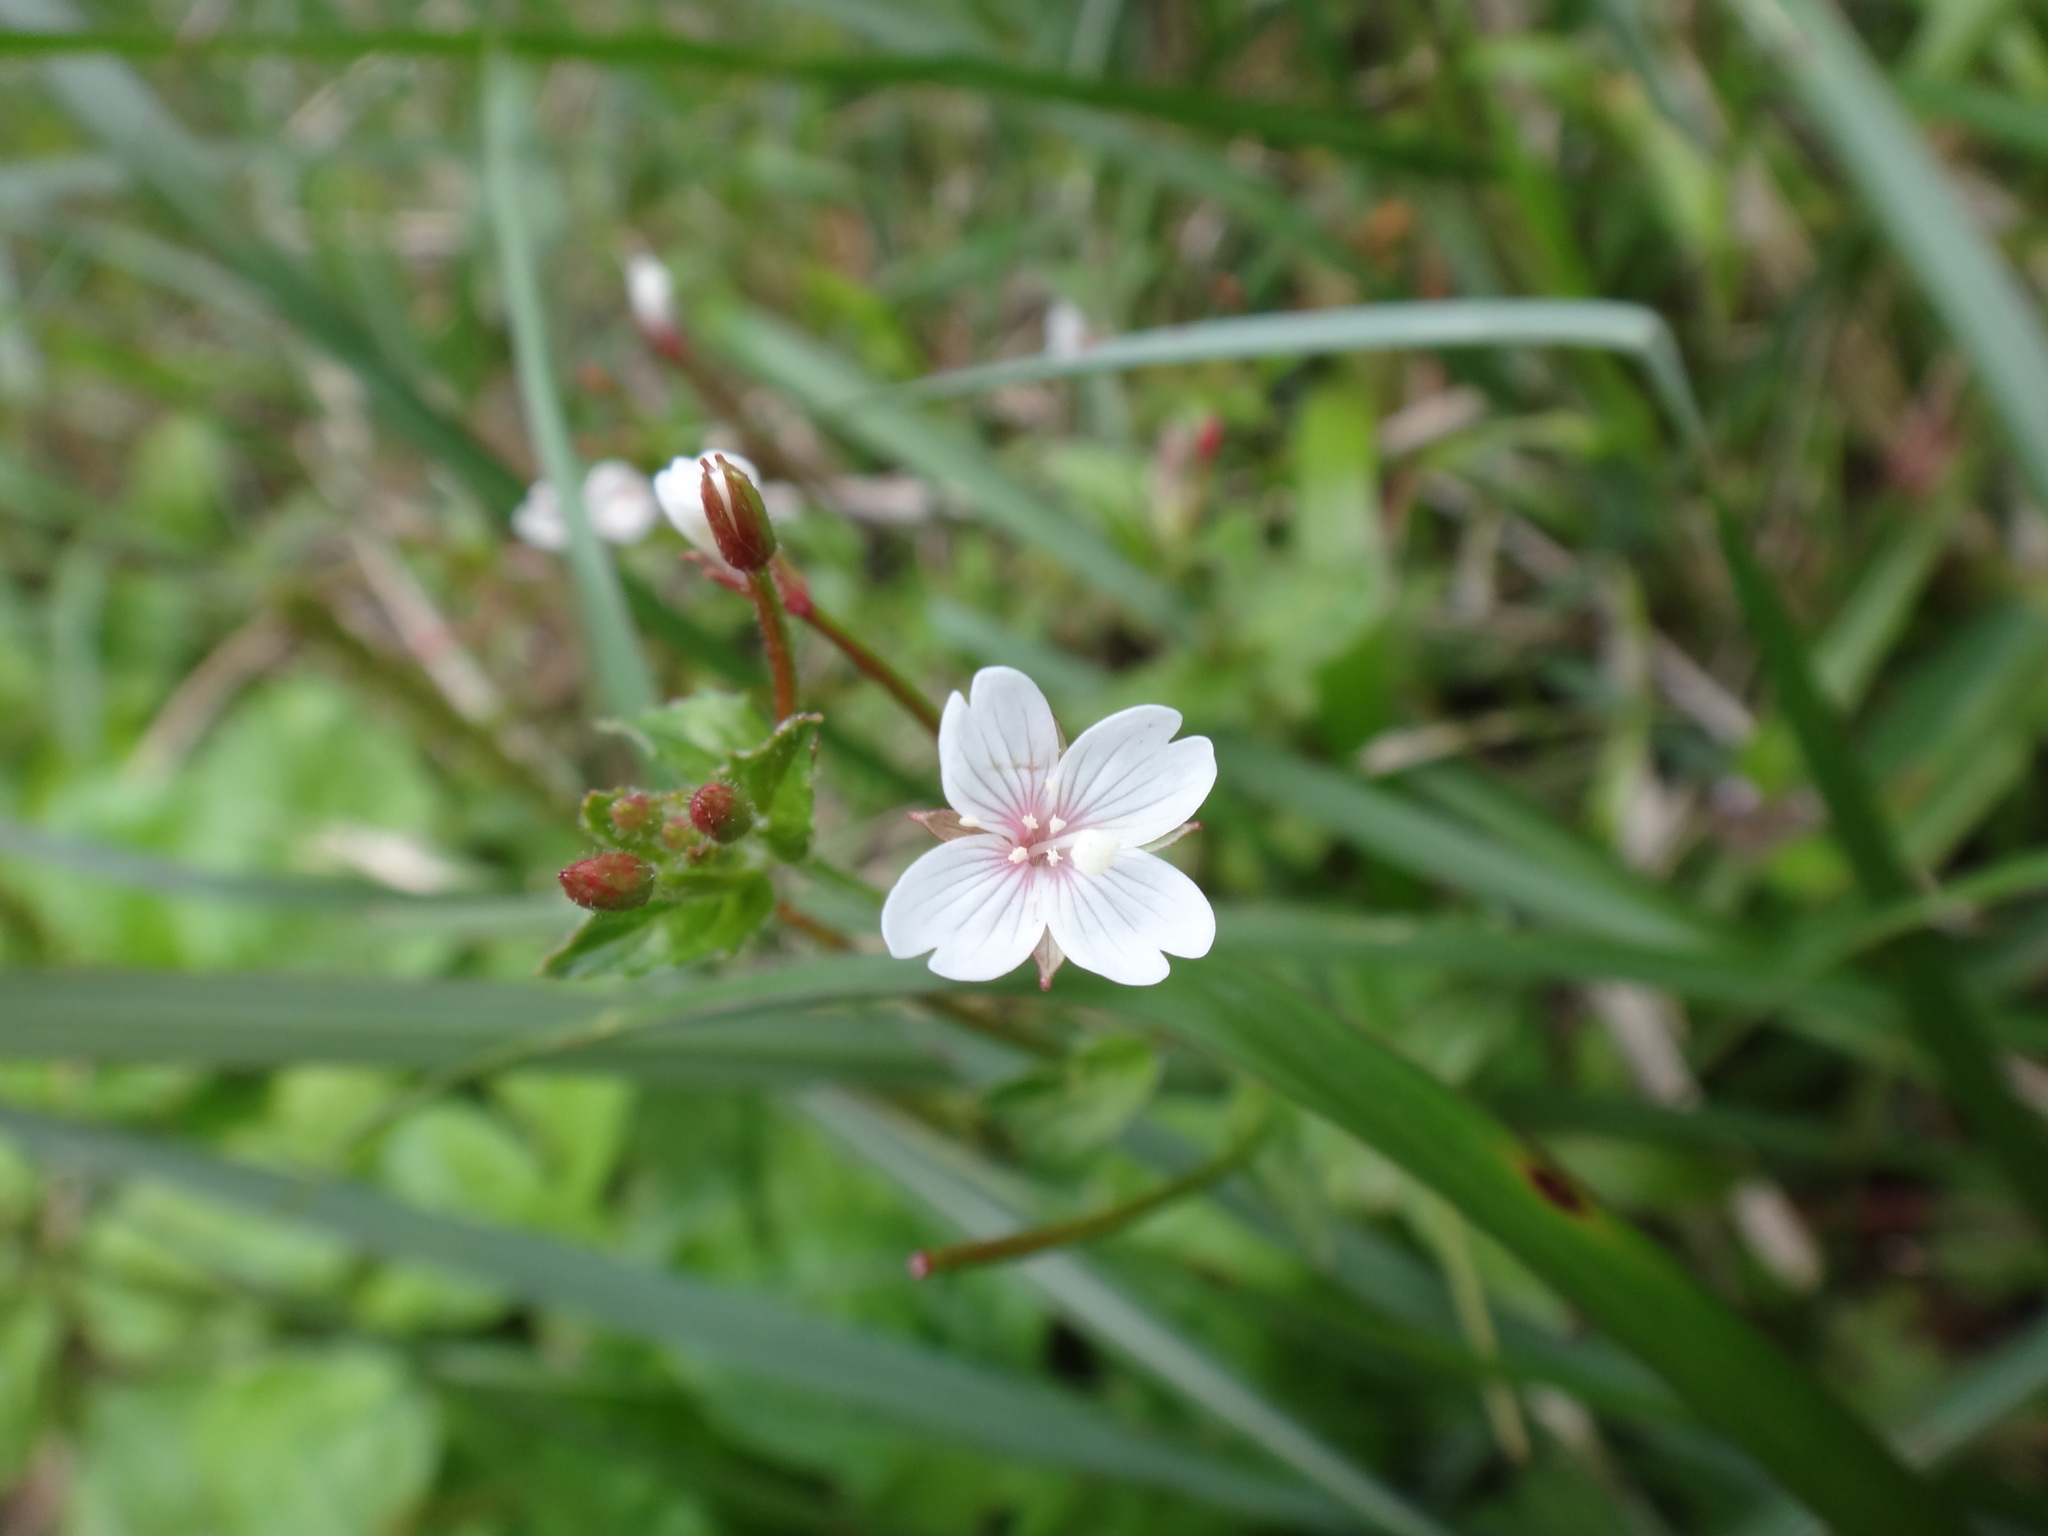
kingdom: Plantae
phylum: Tracheophyta
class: Magnoliopsida
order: Myrtales
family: Onagraceae
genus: Epilobium
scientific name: Epilobium amurense
